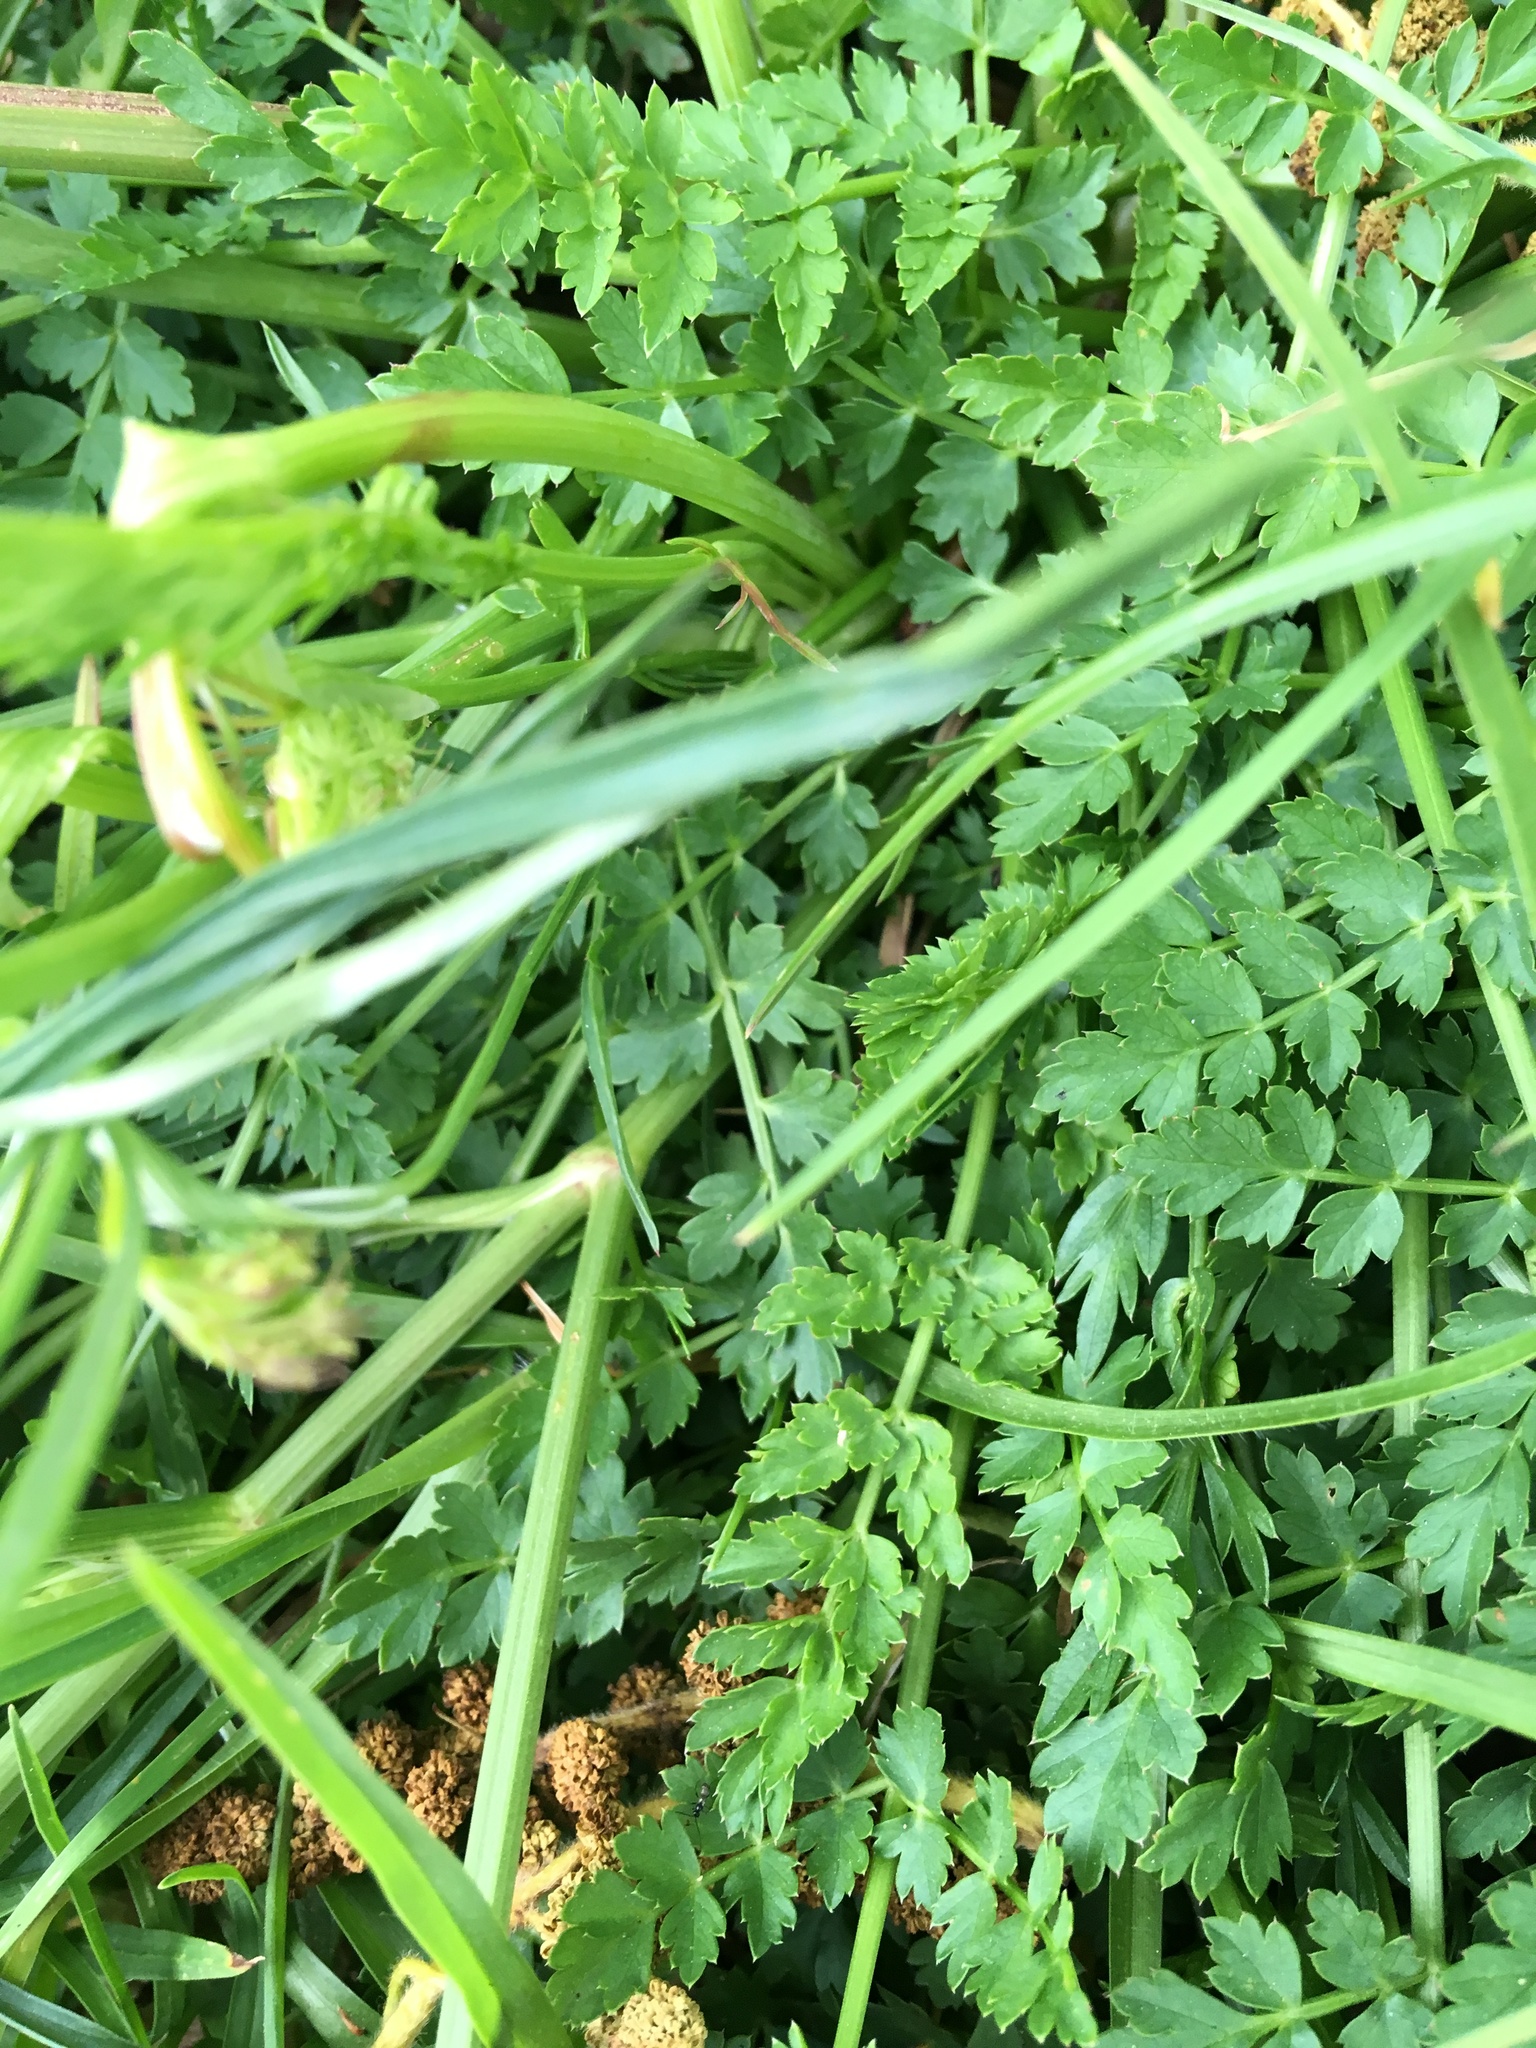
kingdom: Plantae
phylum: Tracheophyta
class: Magnoliopsida
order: Apiales
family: Apiaceae
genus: Daucus
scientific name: Daucus carota
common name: Wild carrot
